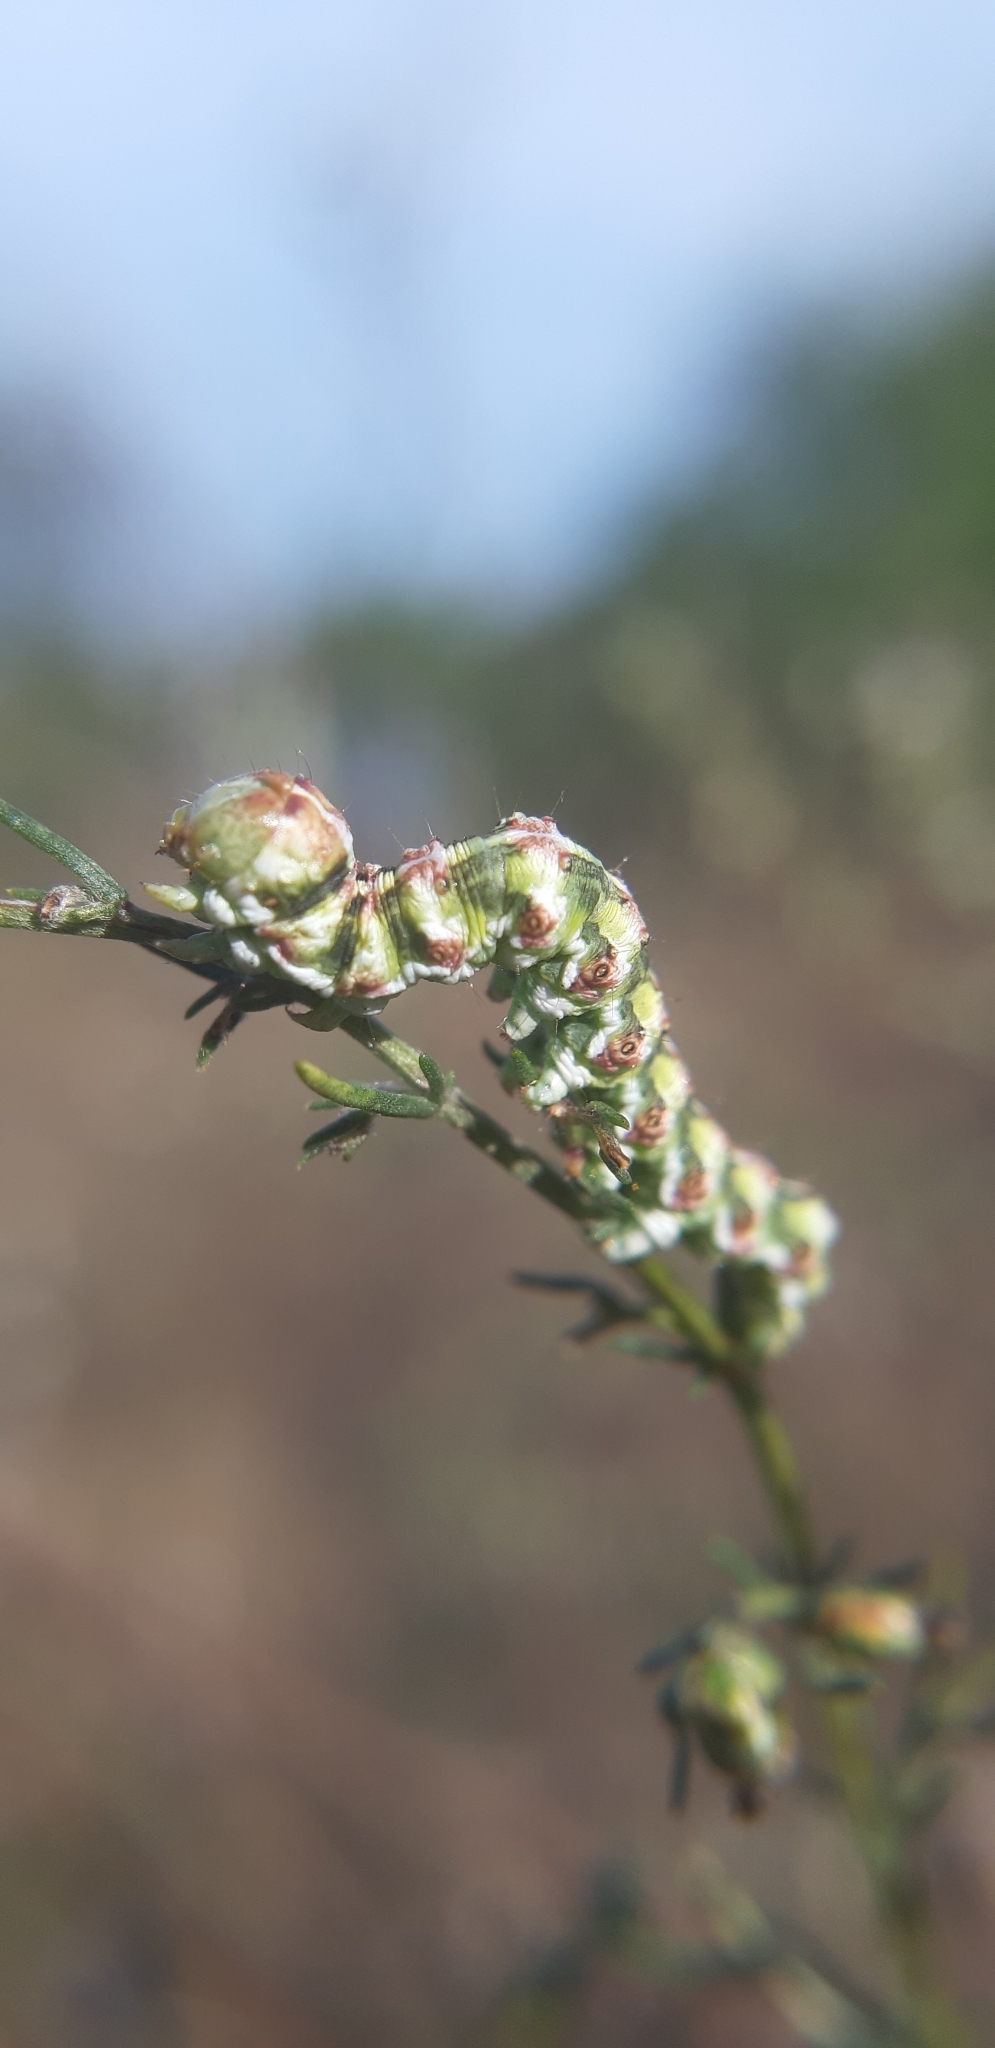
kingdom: Animalia
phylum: Arthropoda
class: Insecta
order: Lepidoptera
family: Noctuidae
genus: Cucullia
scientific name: Cucullia absinthii
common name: Wormwood
